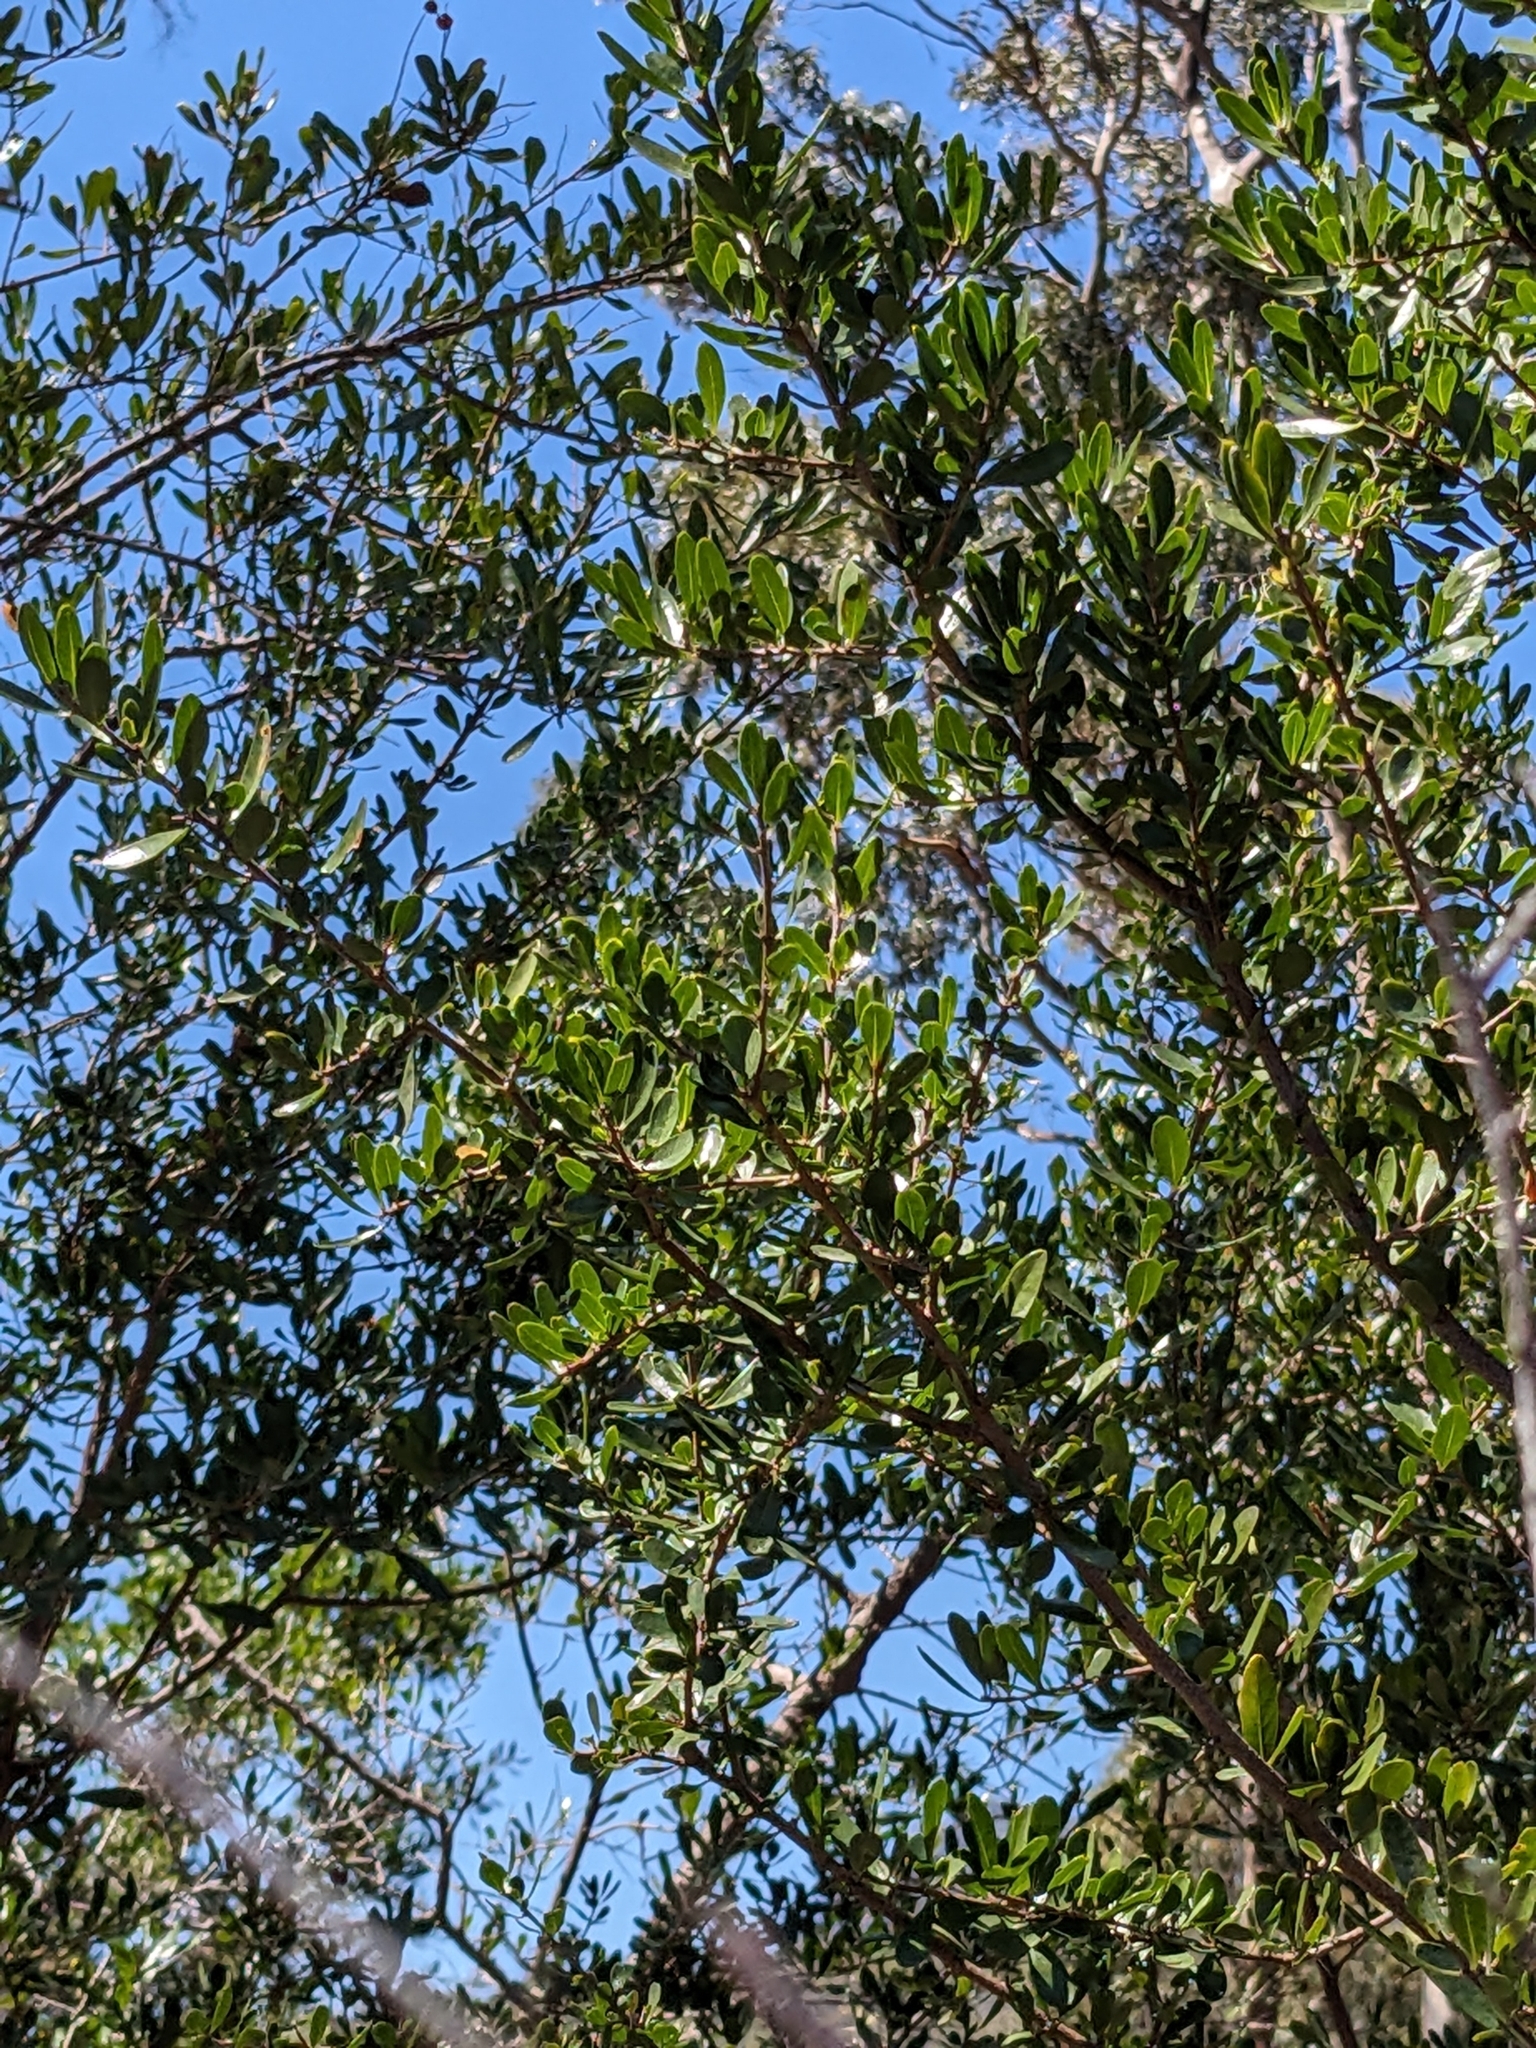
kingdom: Plantae
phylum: Tracheophyta
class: Magnoliopsida
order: Apiales
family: Pittosporaceae
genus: Bursaria
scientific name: Bursaria spinosa
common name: Australian blackthorn
